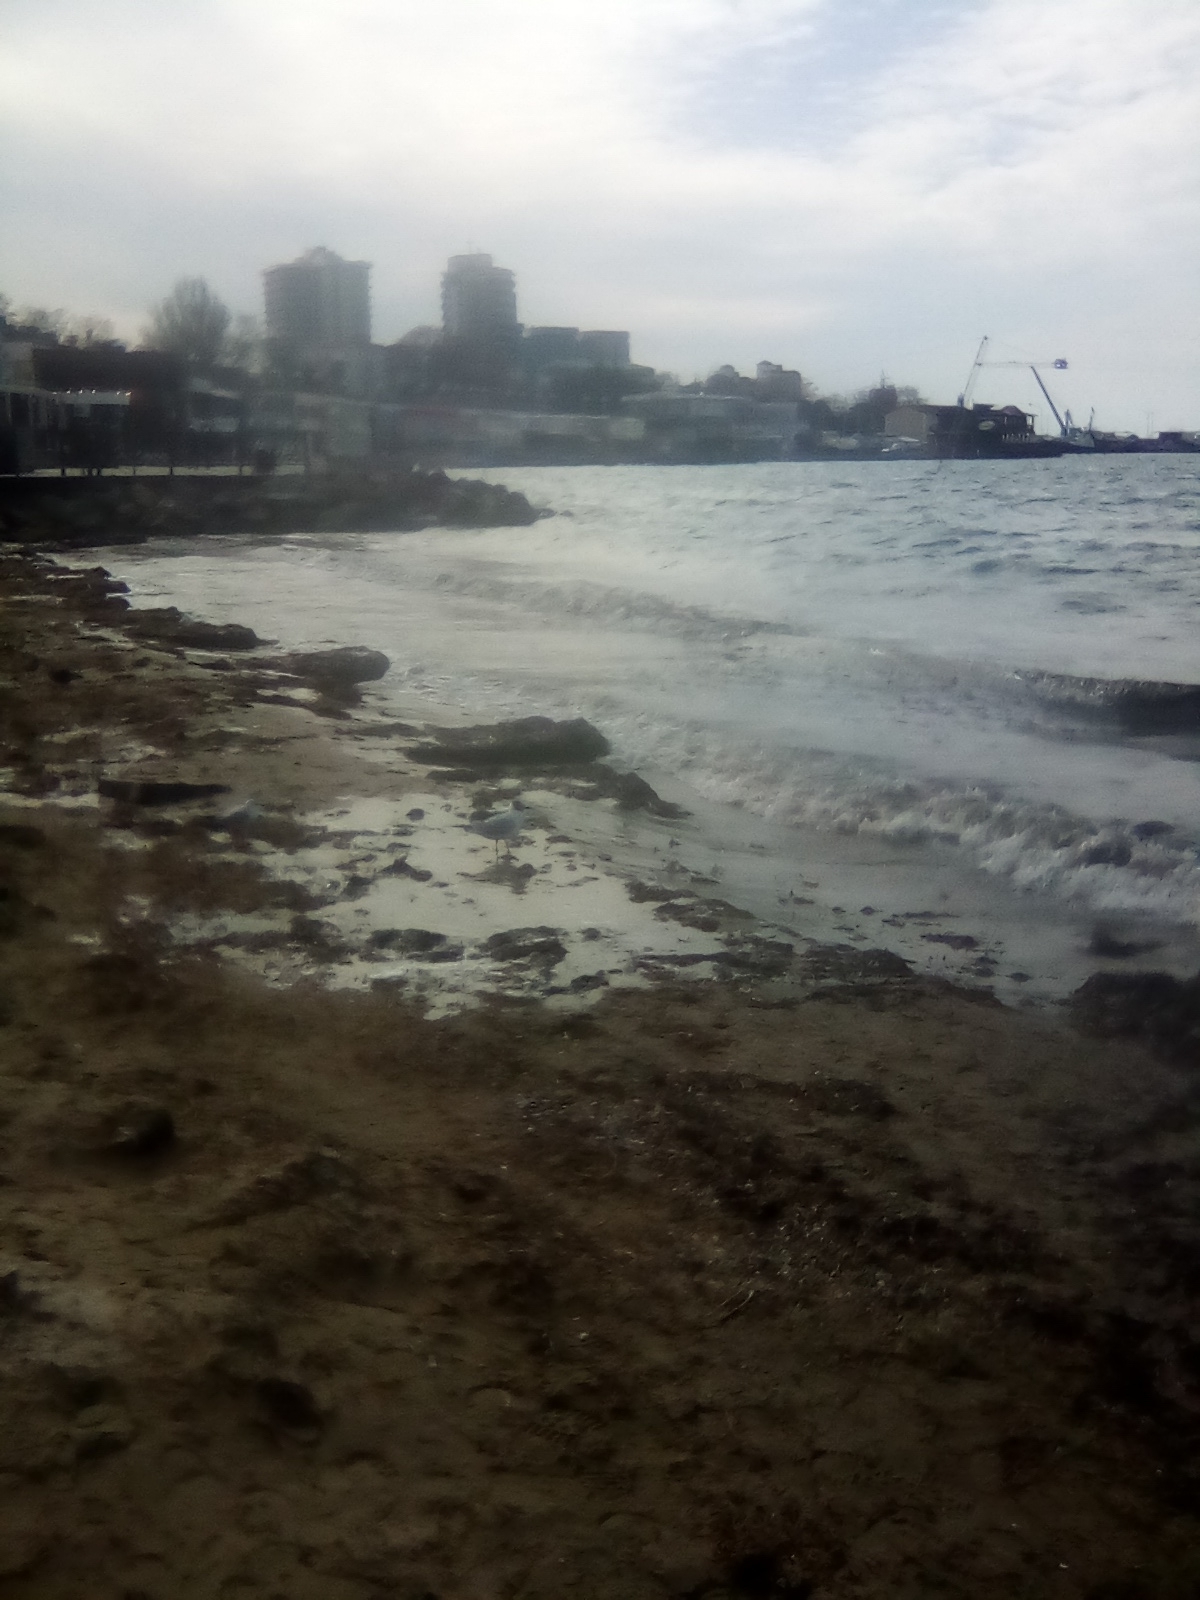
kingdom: Animalia
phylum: Chordata
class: Aves
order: Charadriiformes
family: Laridae
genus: Chroicocephalus
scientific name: Chroicocephalus ridibundus
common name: Black-headed gull
